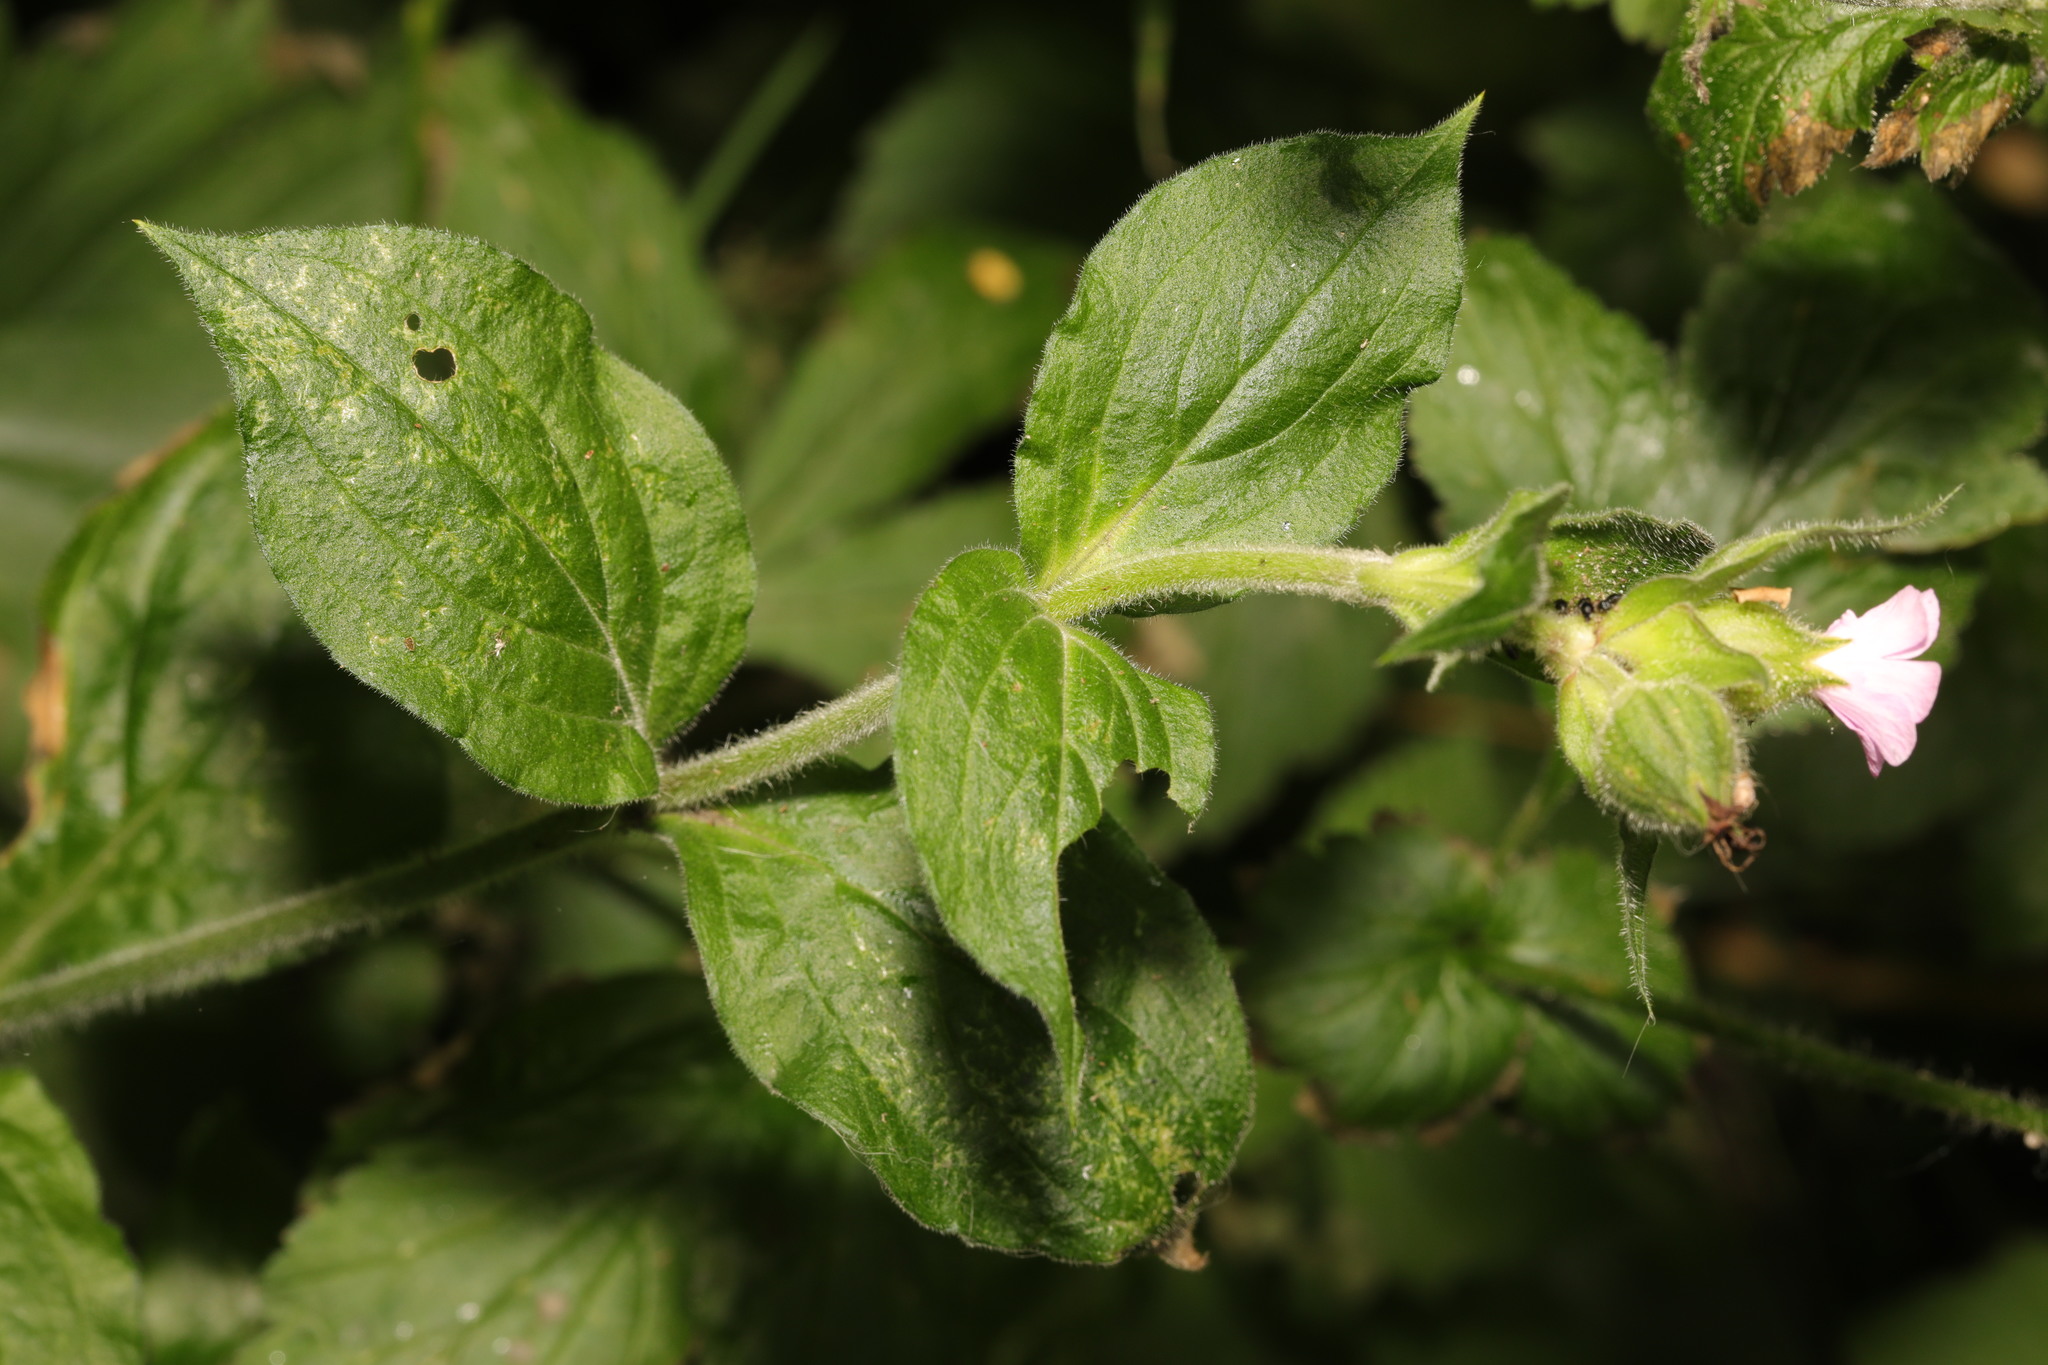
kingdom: Plantae
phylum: Tracheophyta
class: Magnoliopsida
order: Caryophyllales
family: Caryophyllaceae
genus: Silene
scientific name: Silene dioica
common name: Red campion
